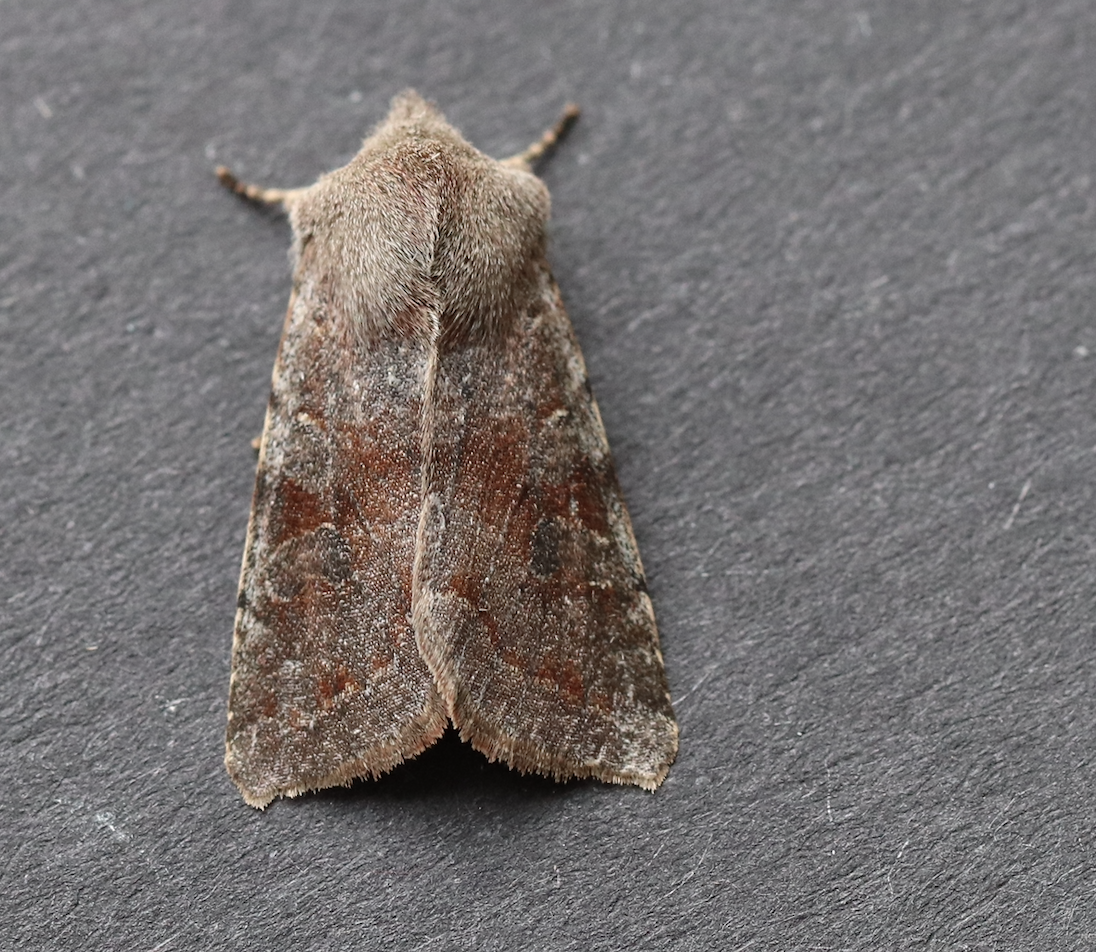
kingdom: Animalia
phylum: Arthropoda
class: Insecta
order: Lepidoptera
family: Noctuidae
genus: Orthosia
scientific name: Orthosia incerta
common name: Clouded drab
